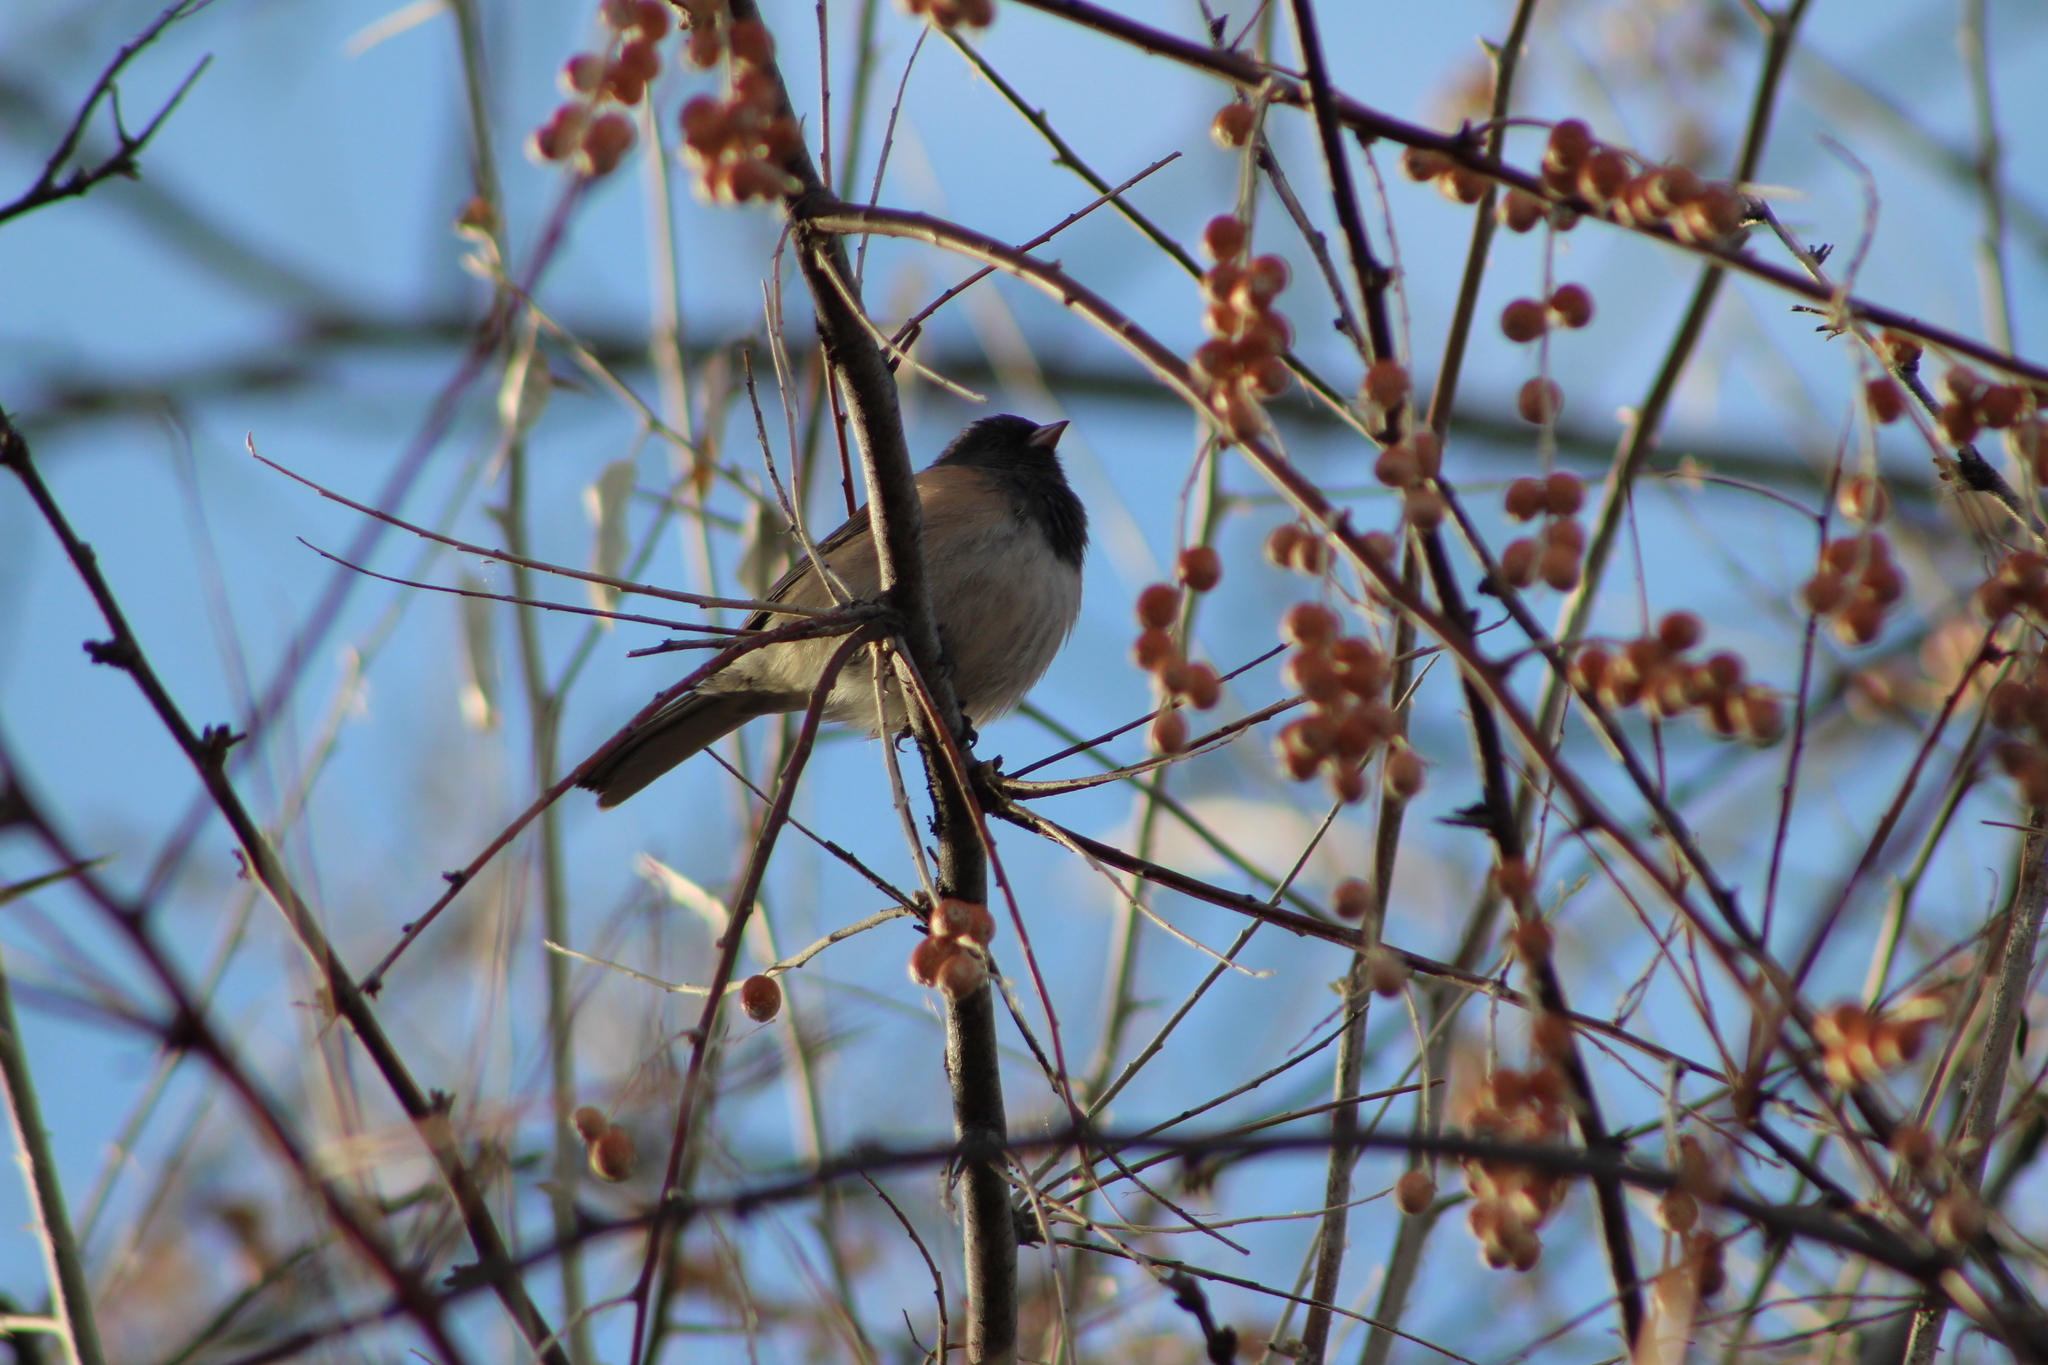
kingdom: Animalia
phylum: Chordata
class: Aves
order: Passeriformes
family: Passerellidae
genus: Junco
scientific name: Junco hyemalis
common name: Dark-eyed junco
